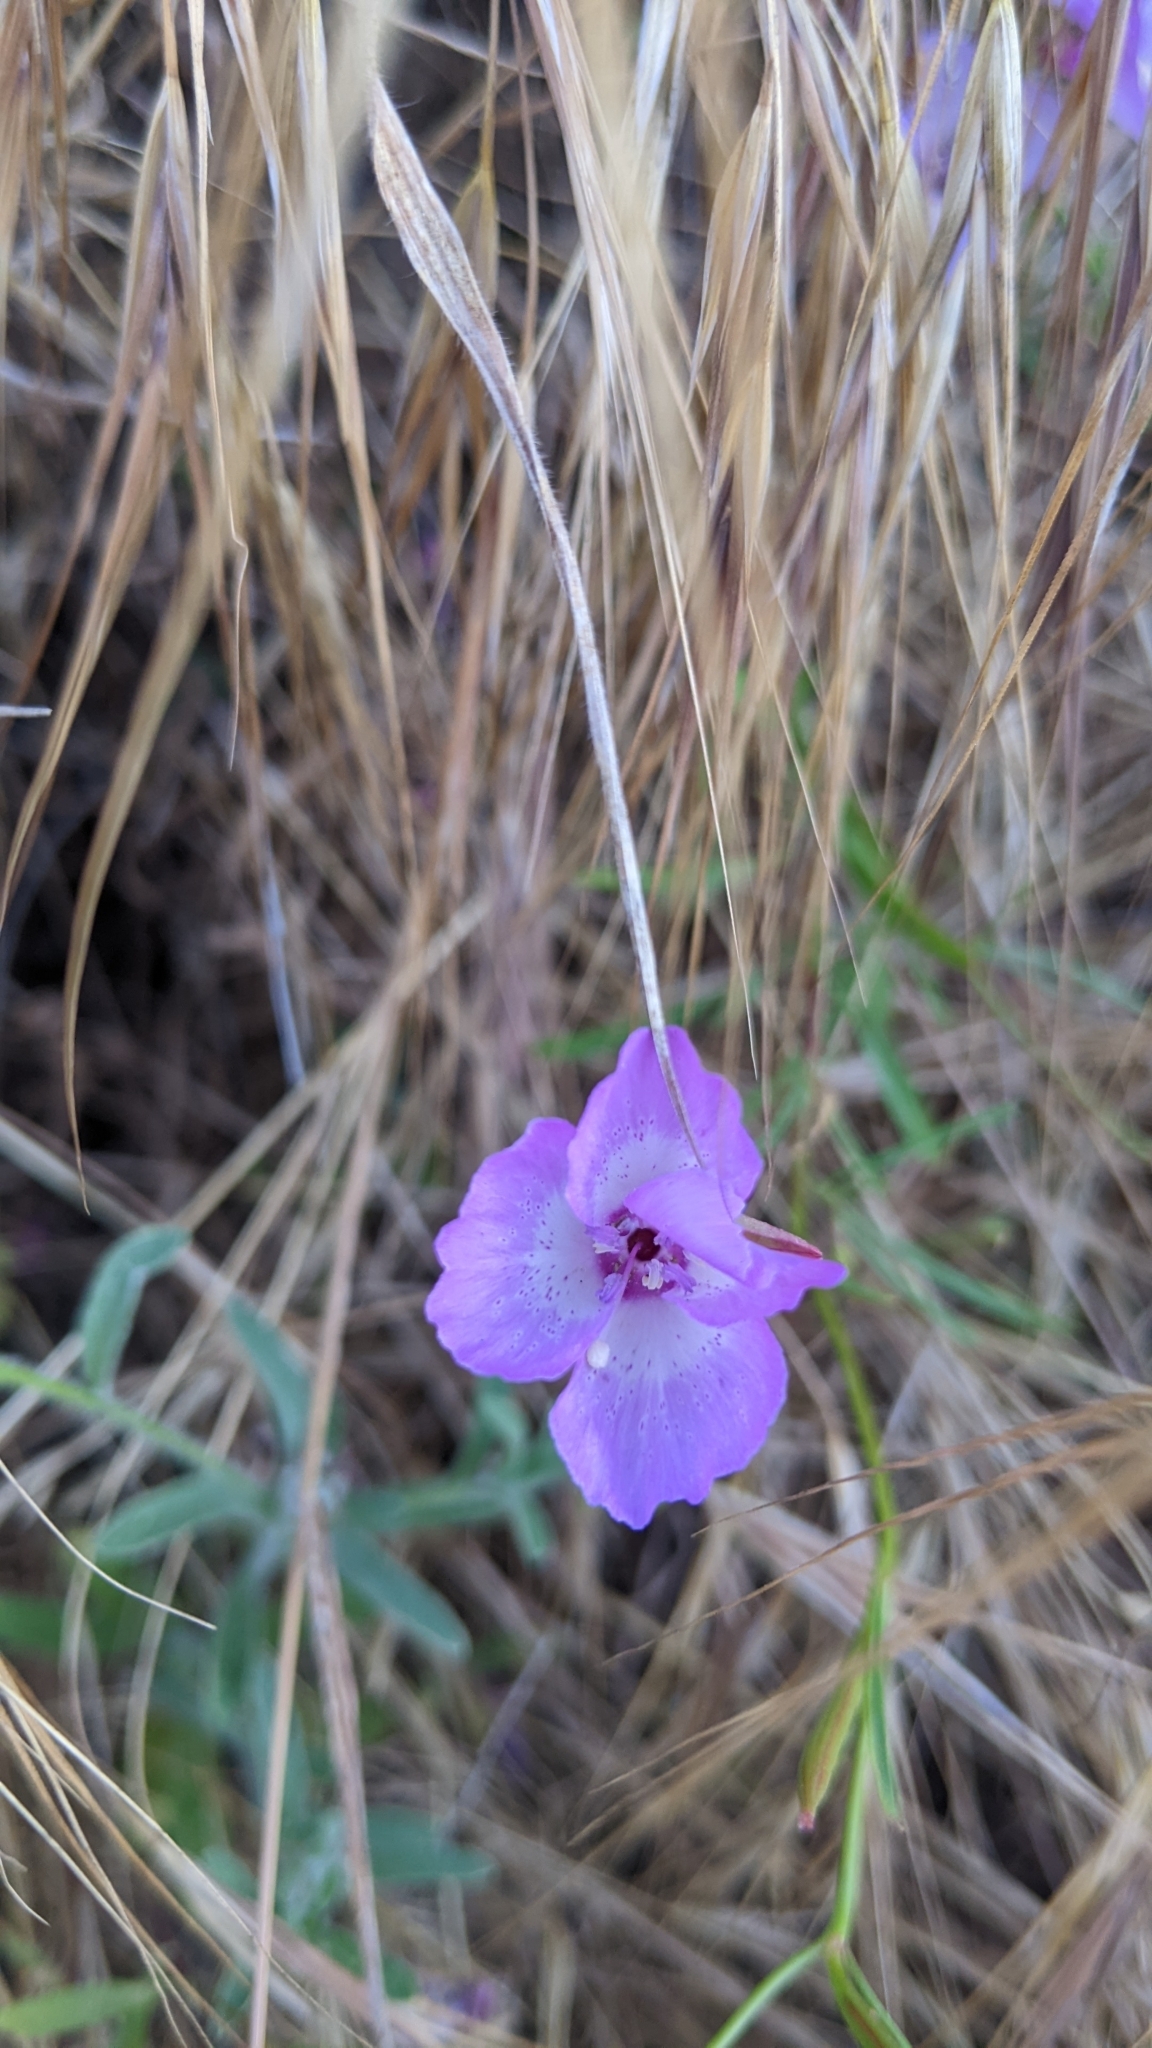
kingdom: Plantae
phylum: Tracheophyta
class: Magnoliopsida
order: Myrtales
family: Onagraceae
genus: Clarkia
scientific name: Clarkia cylindrica
